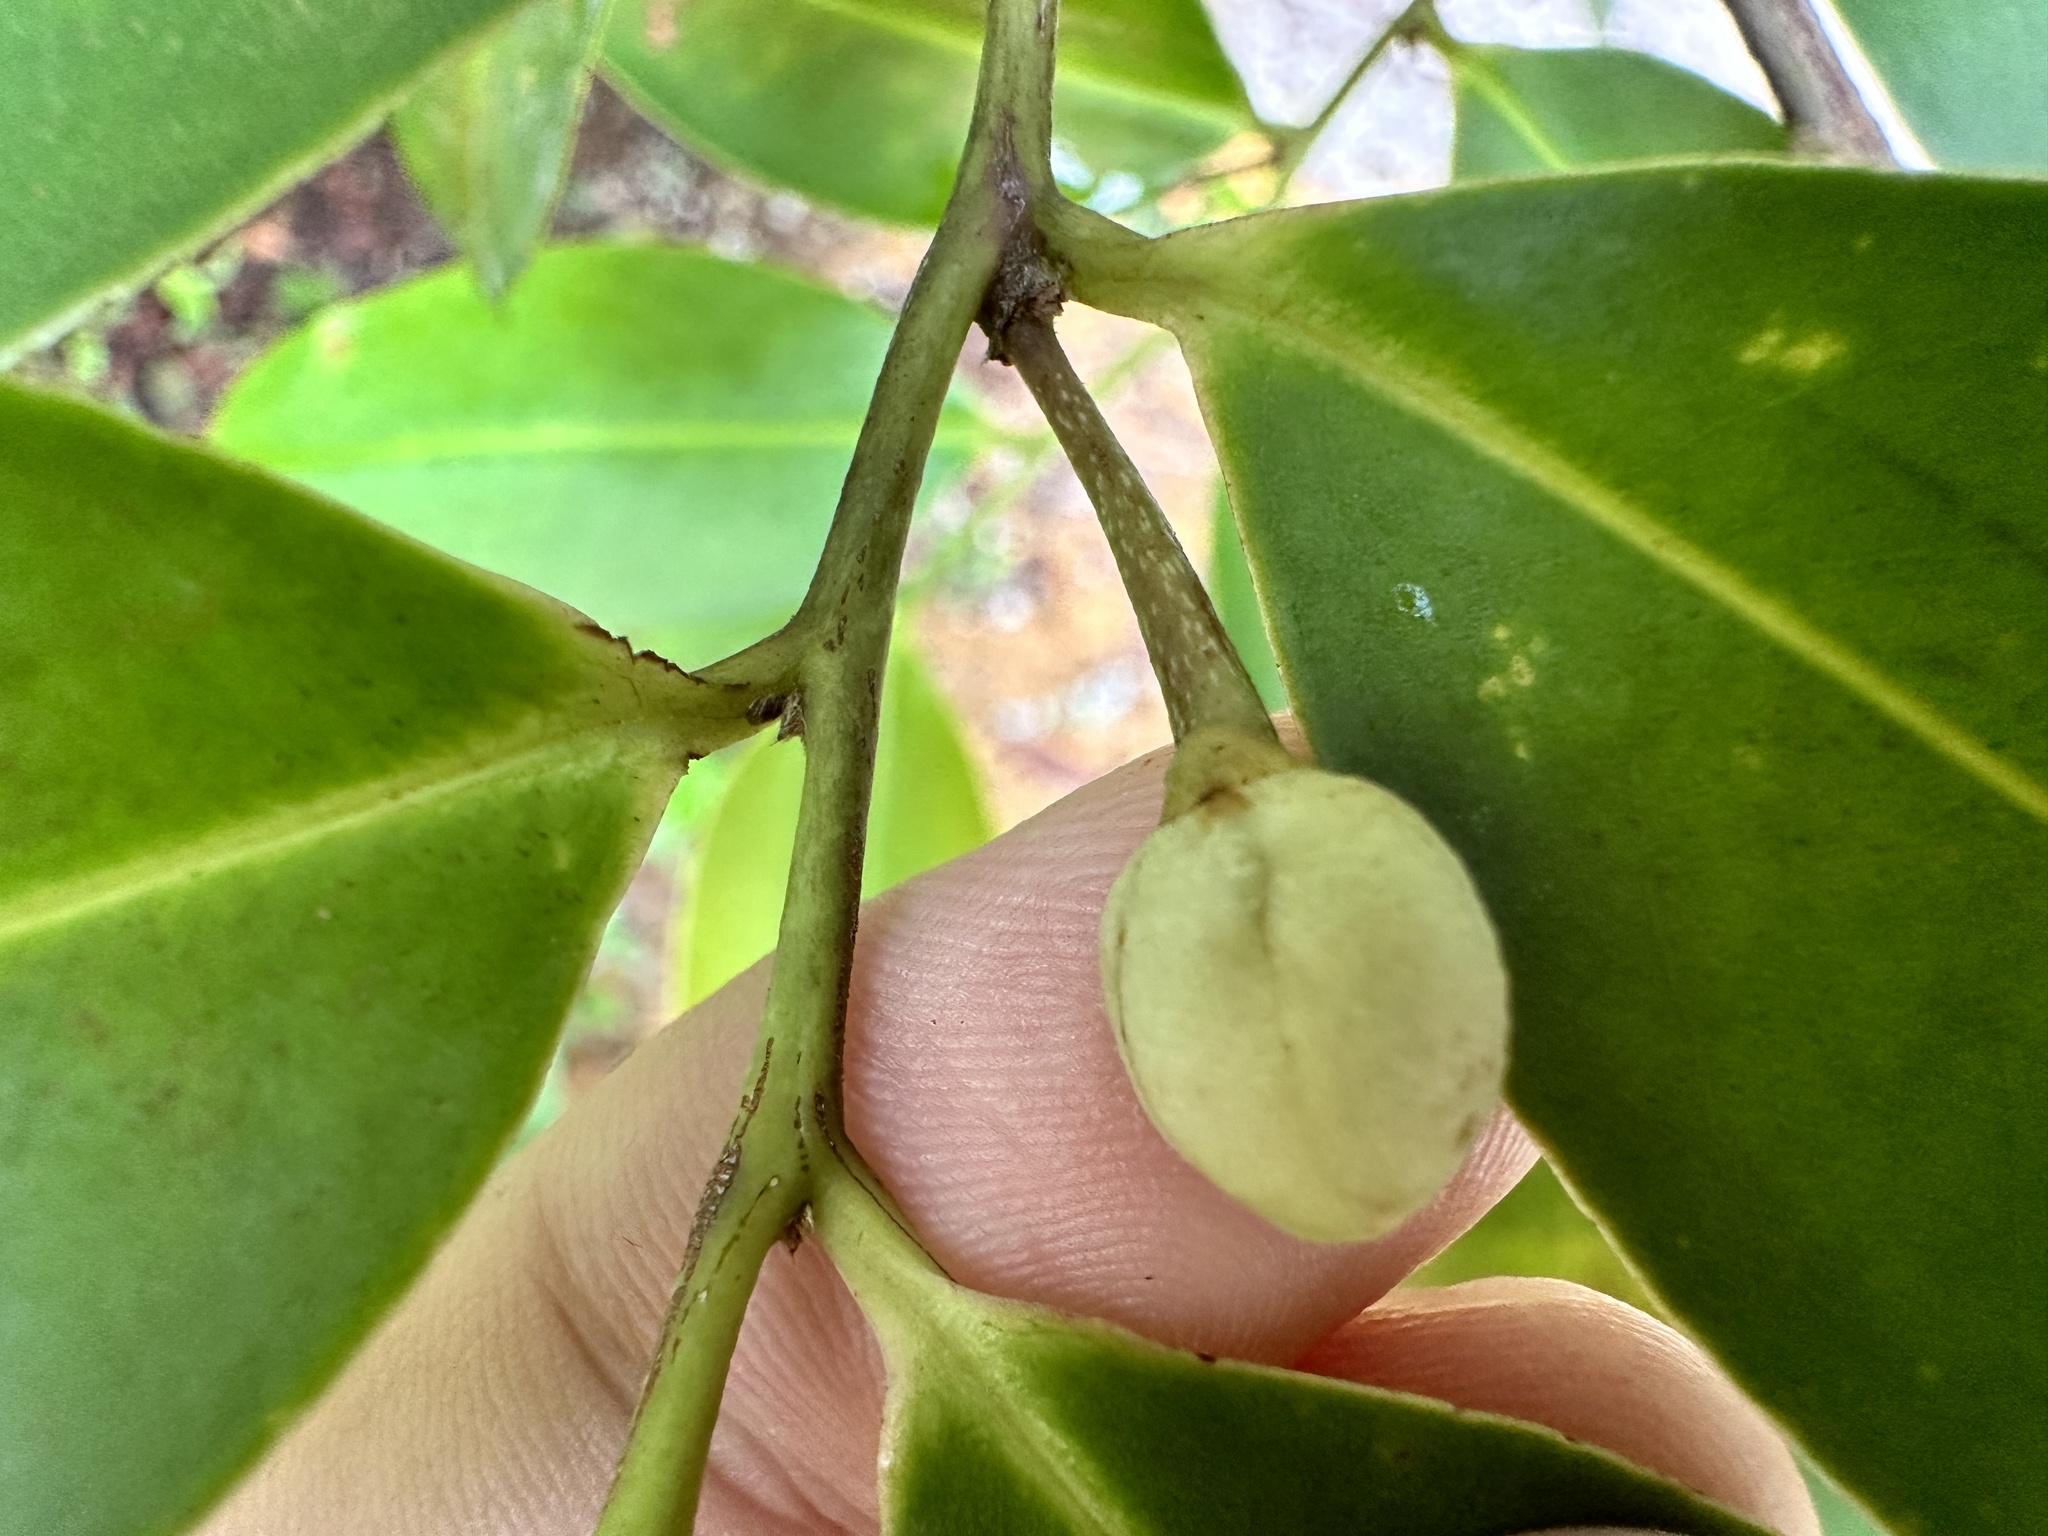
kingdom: Plantae
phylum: Tracheophyta
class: Magnoliopsida
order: Ericales
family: Pentaphylacaceae
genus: Adinandra
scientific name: Adinandra dumosa
